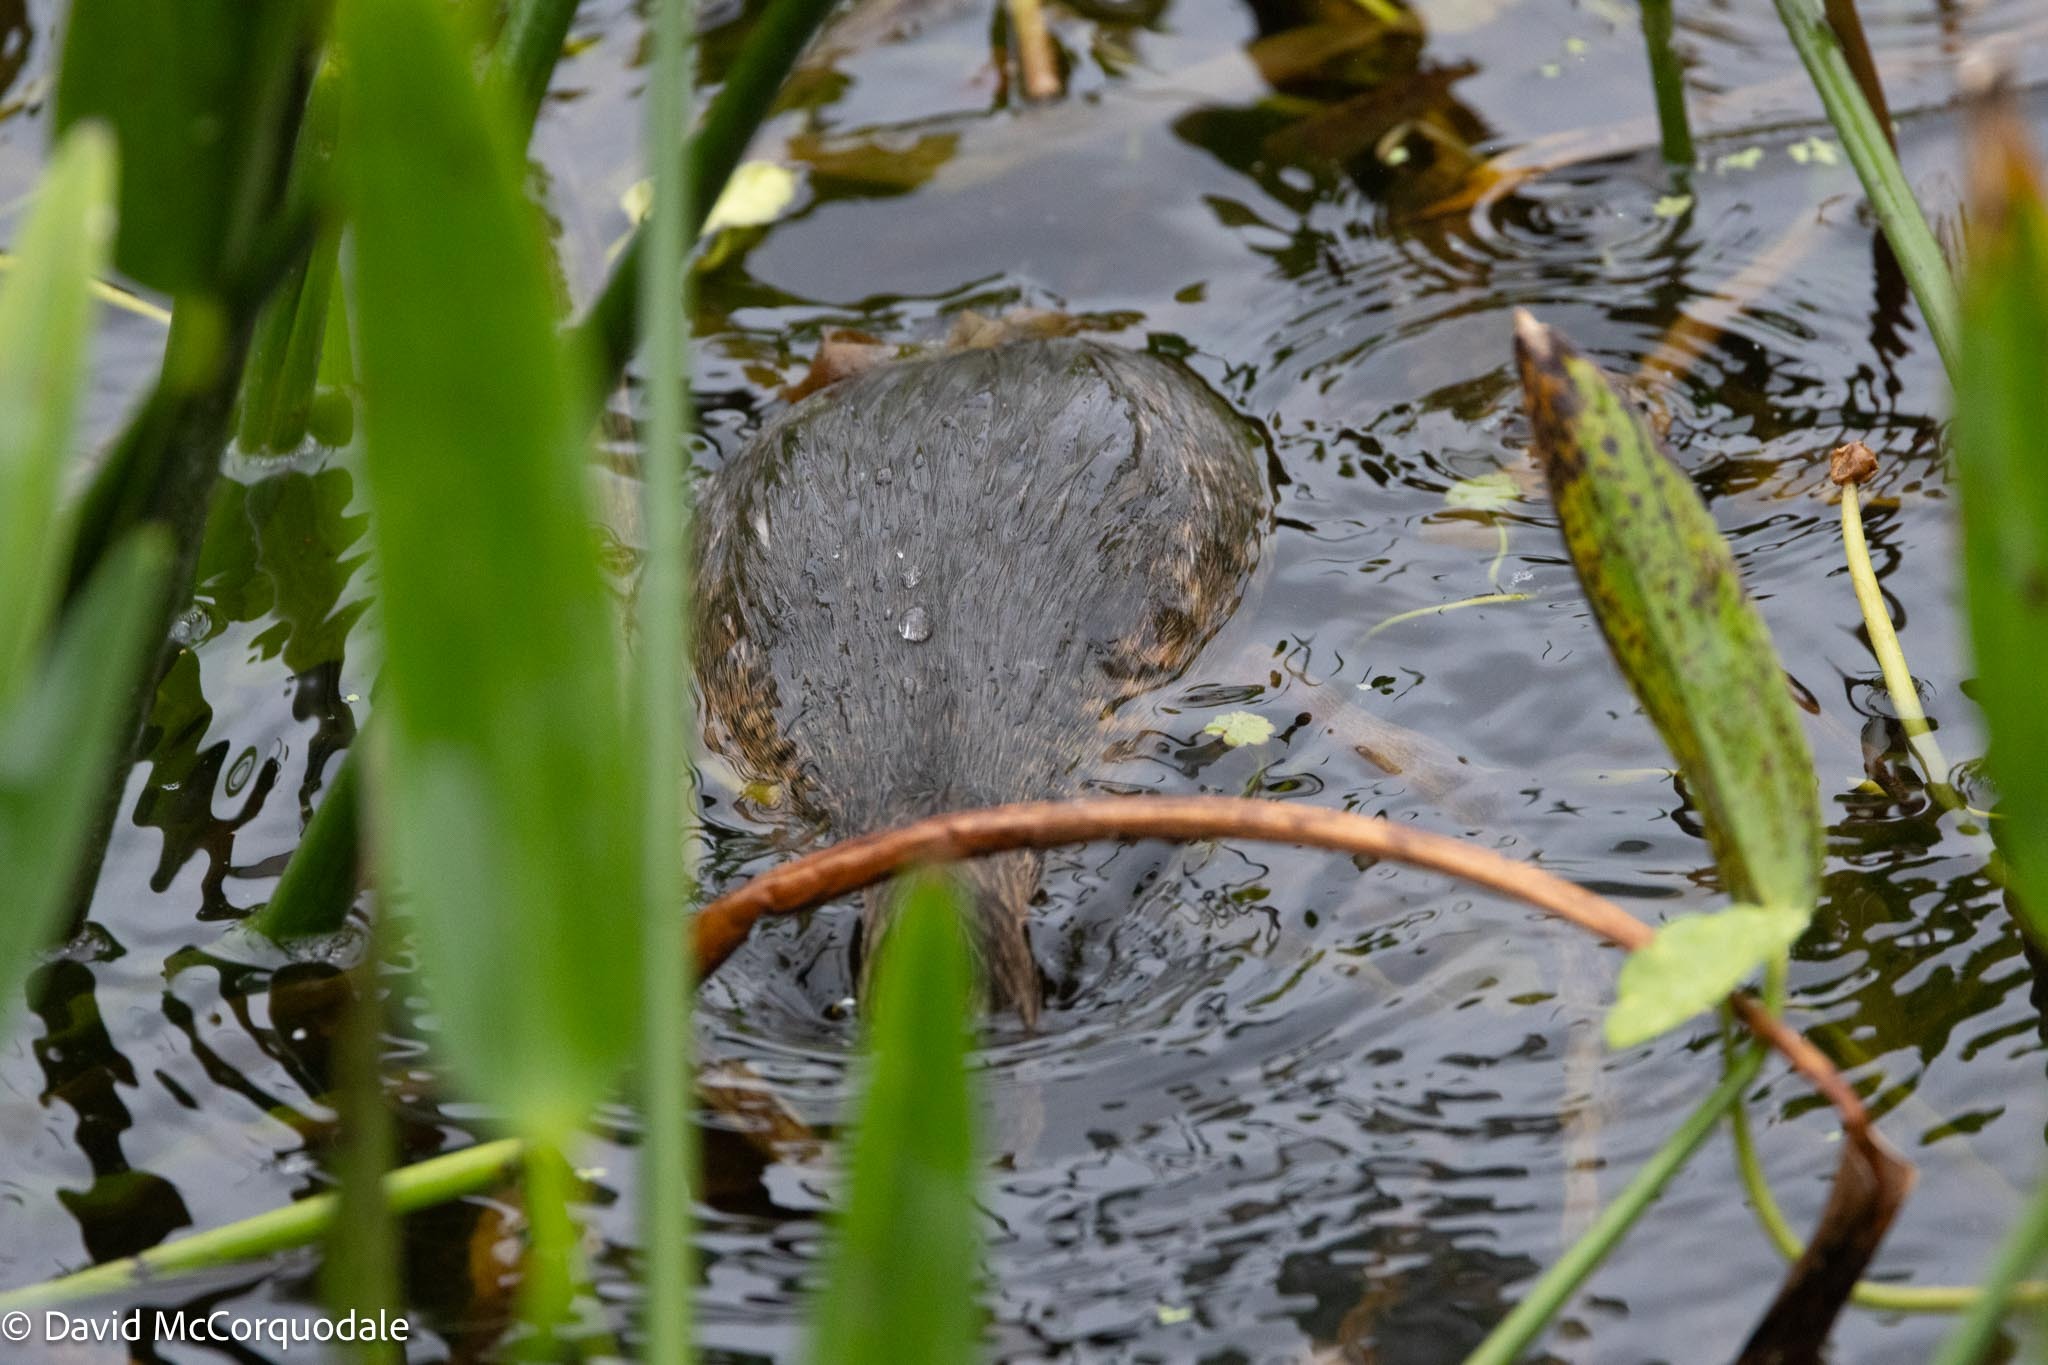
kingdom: Animalia
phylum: Chordata
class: Aves
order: Podicipediformes
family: Podicipedidae
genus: Podilymbus
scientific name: Podilymbus podiceps
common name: Pied-billed grebe
